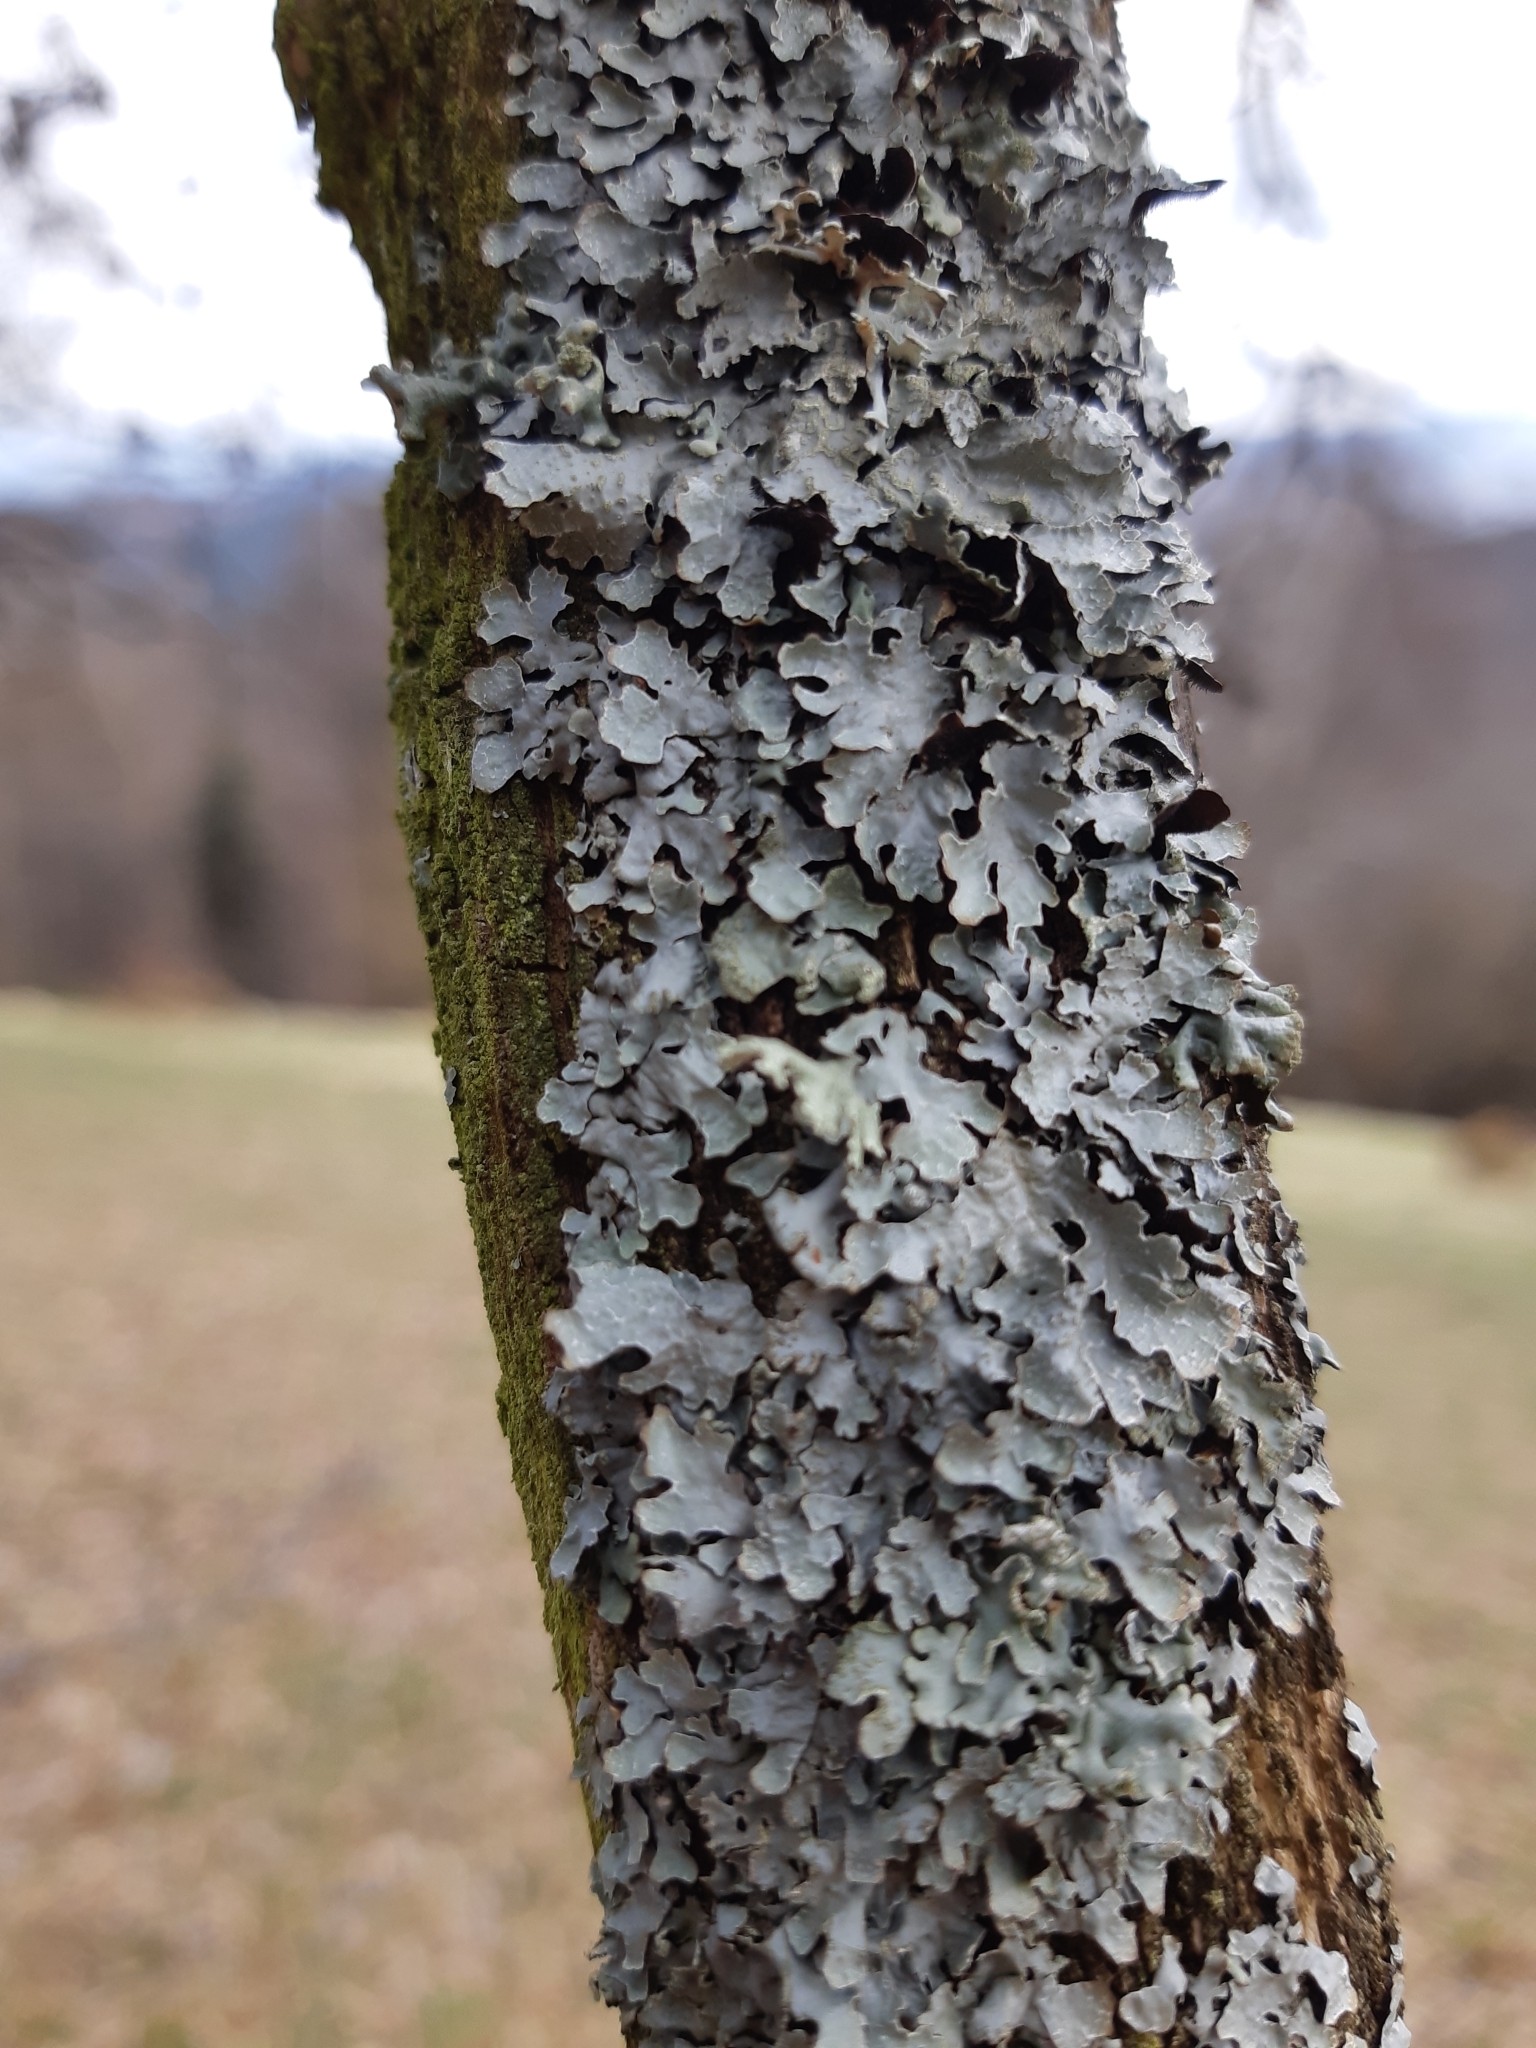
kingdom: Fungi
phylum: Ascomycota
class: Lecanoromycetes
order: Lecanorales
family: Parmeliaceae
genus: Parmelia
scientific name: Parmelia sulcata
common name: Netted shield lichen
